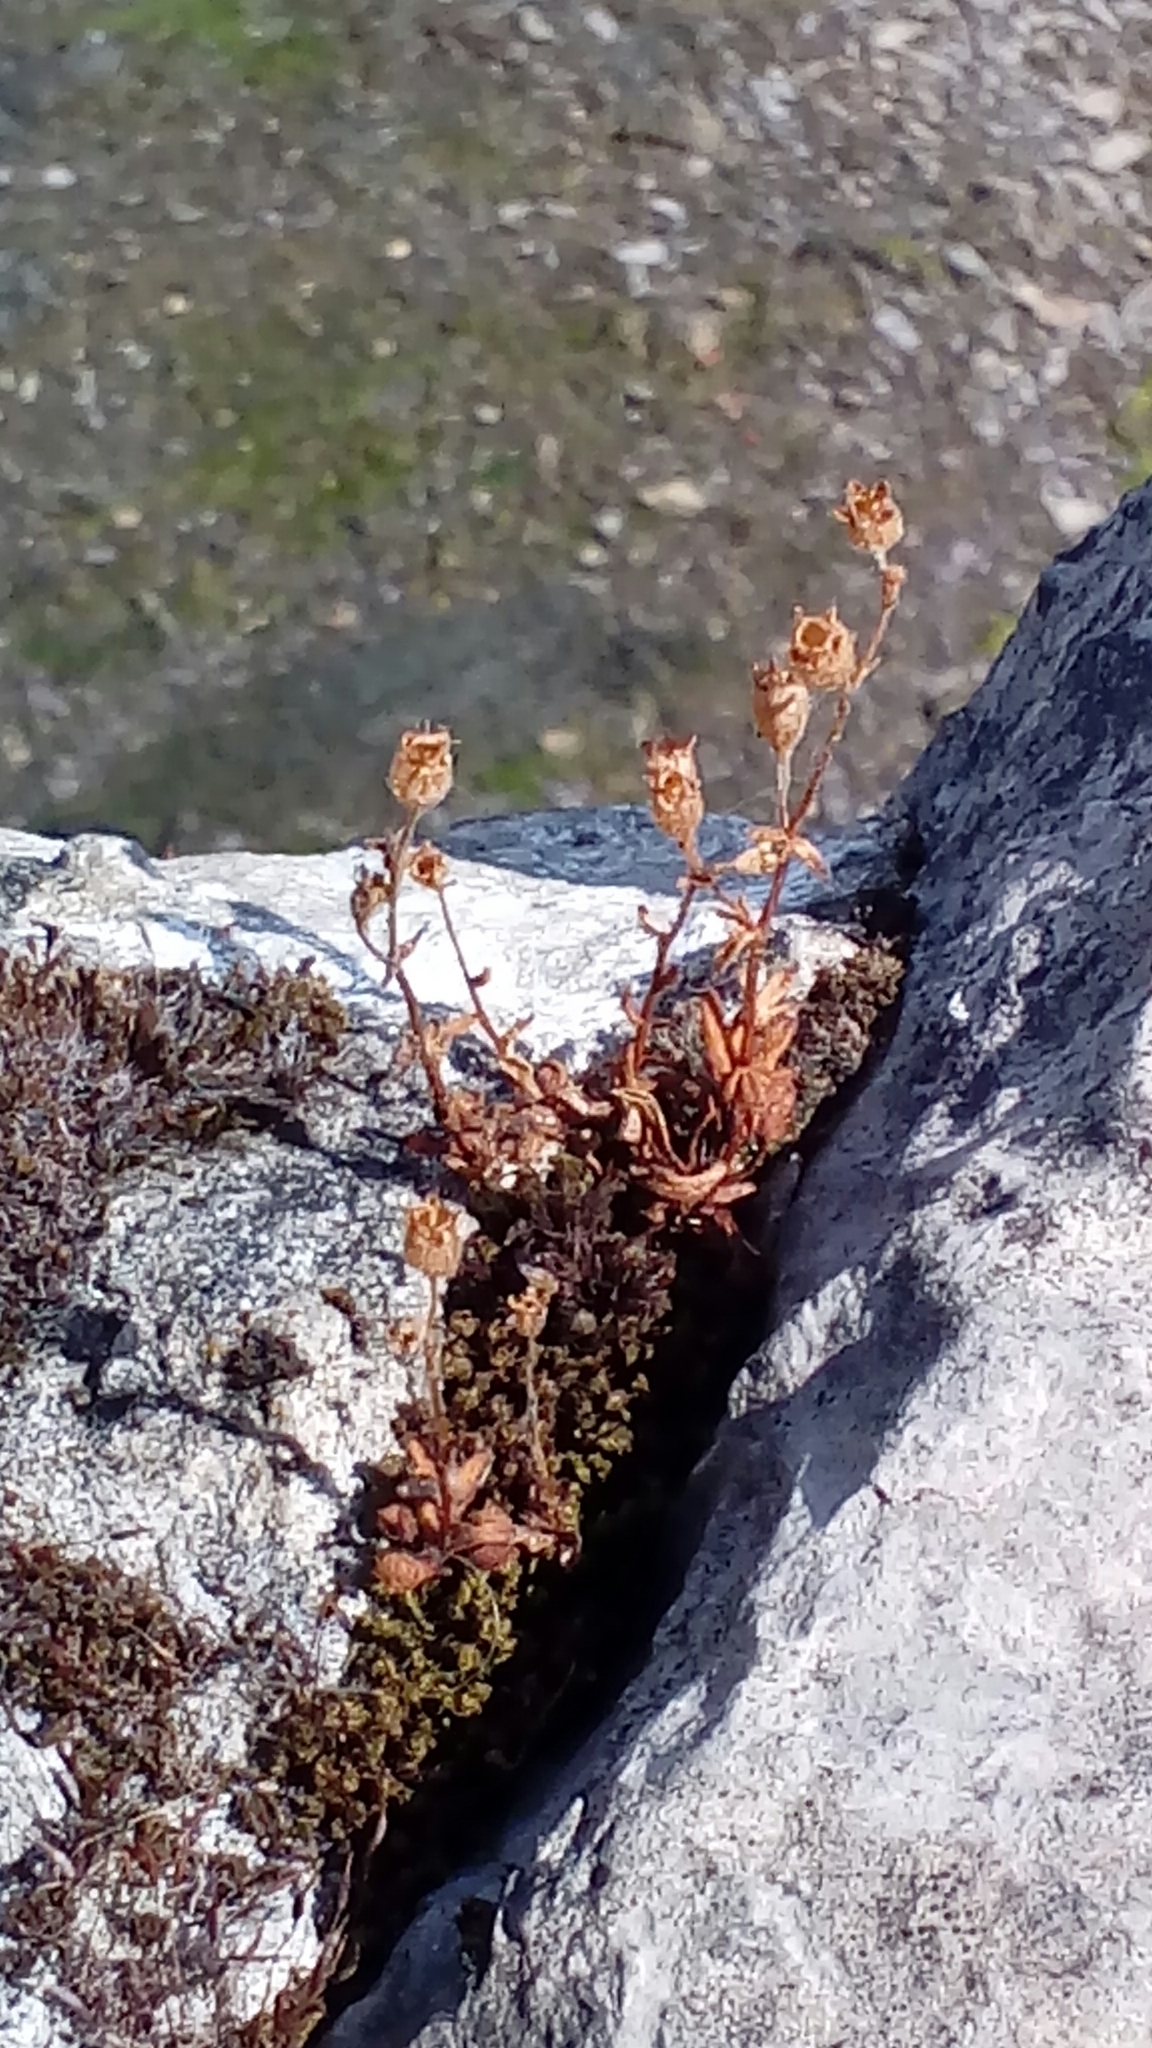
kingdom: Plantae
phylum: Tracheophyta
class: Magnoliopsida
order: Saxifragales
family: Saxifragaceae
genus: Saxifraga
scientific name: Saxifraga tridactylites
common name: Rue-leaved saxifrage
